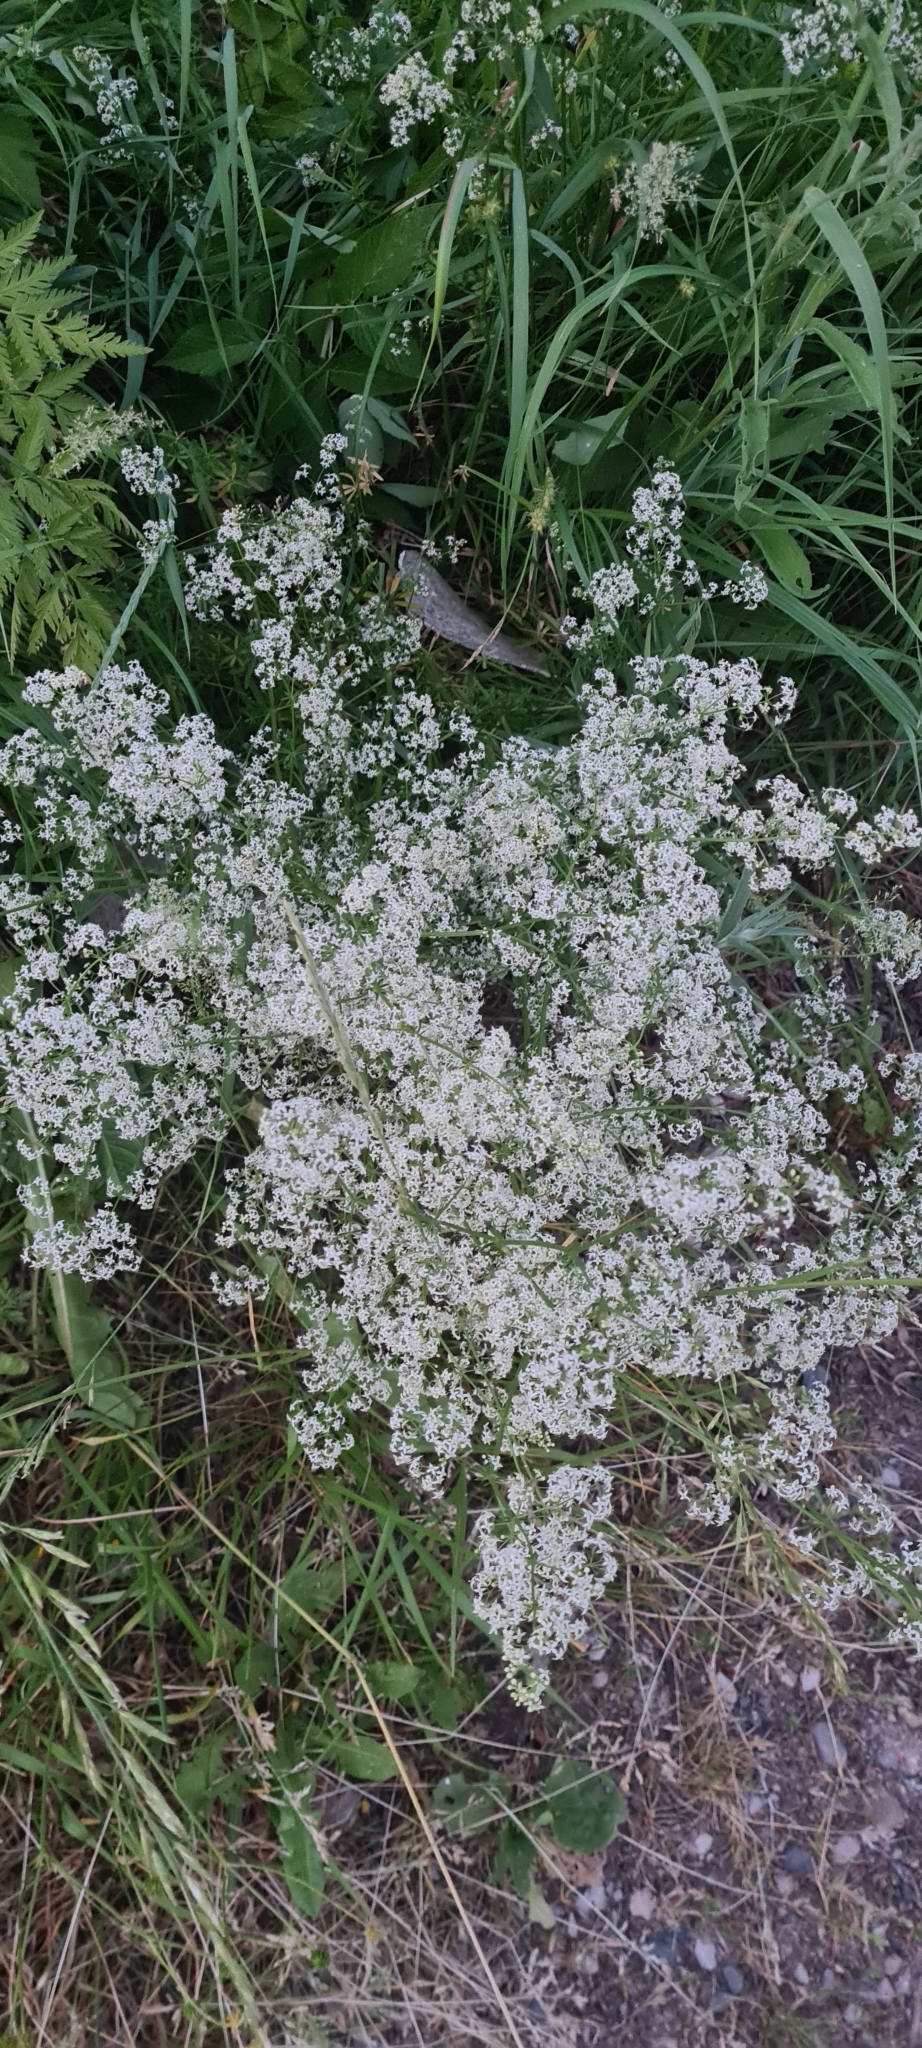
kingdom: Plantae
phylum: Tracheophyta
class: Magnoliopsida
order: Gentianales
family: Rubiaceae
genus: Galium
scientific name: Galium mollugo
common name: Hedge bedstraw
